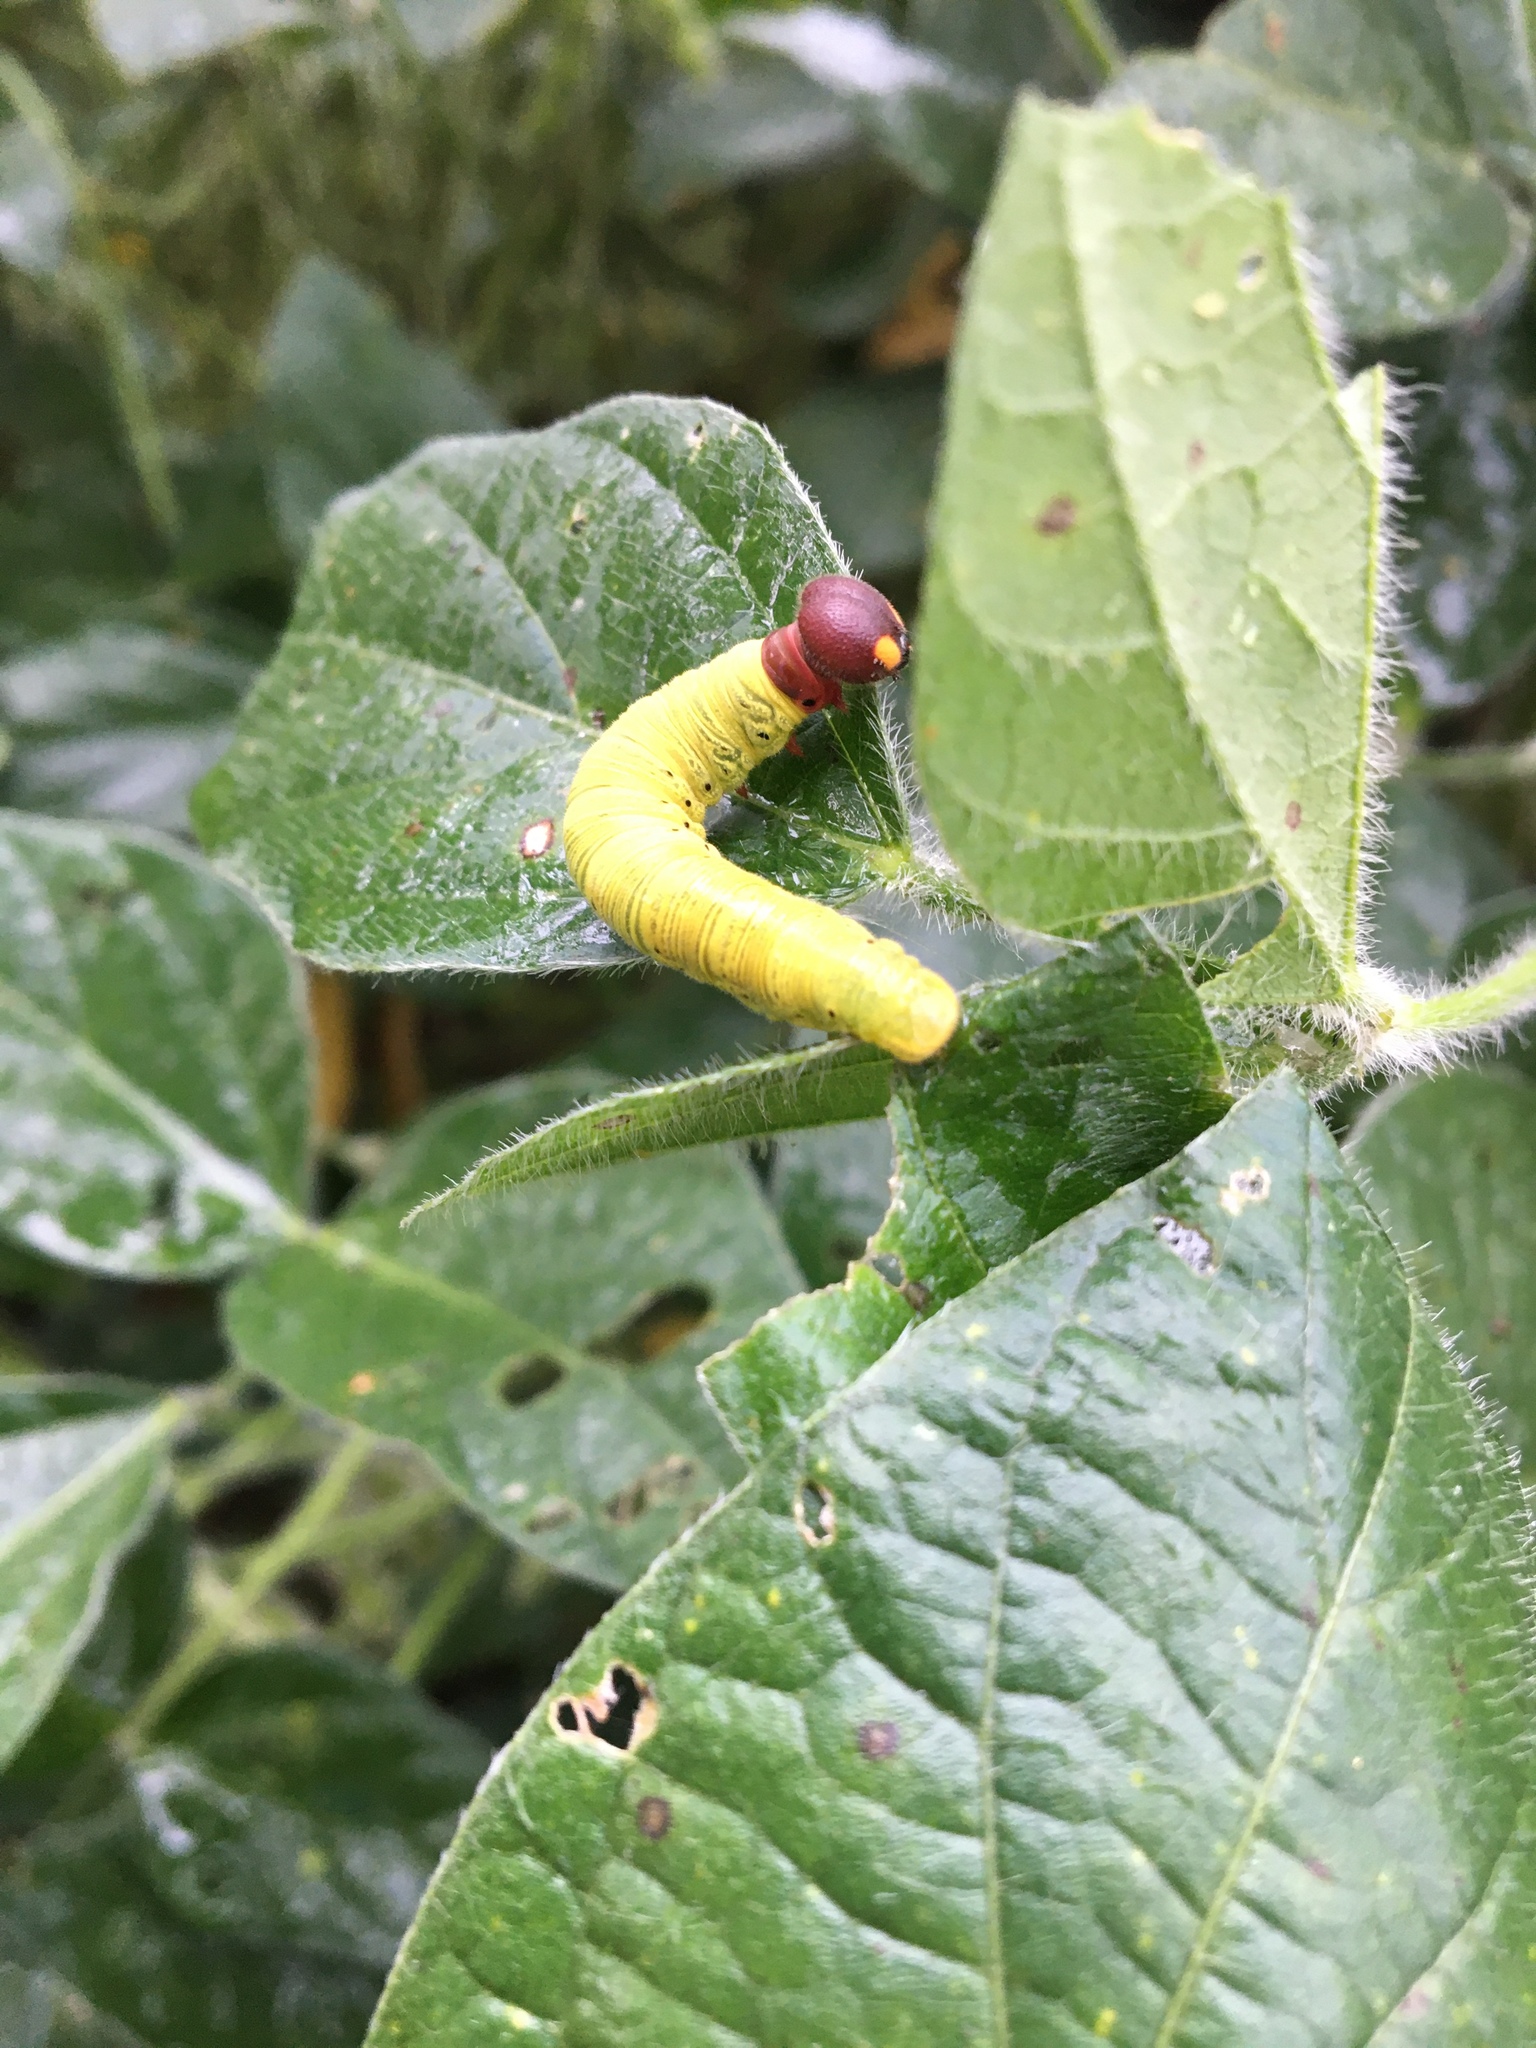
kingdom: Animalia
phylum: Arthropoda
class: Insecta
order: Lepidoptera
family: Hesperiidae
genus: Epargyreus
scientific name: Epargyreus clarus
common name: Silver-spotted skipper
